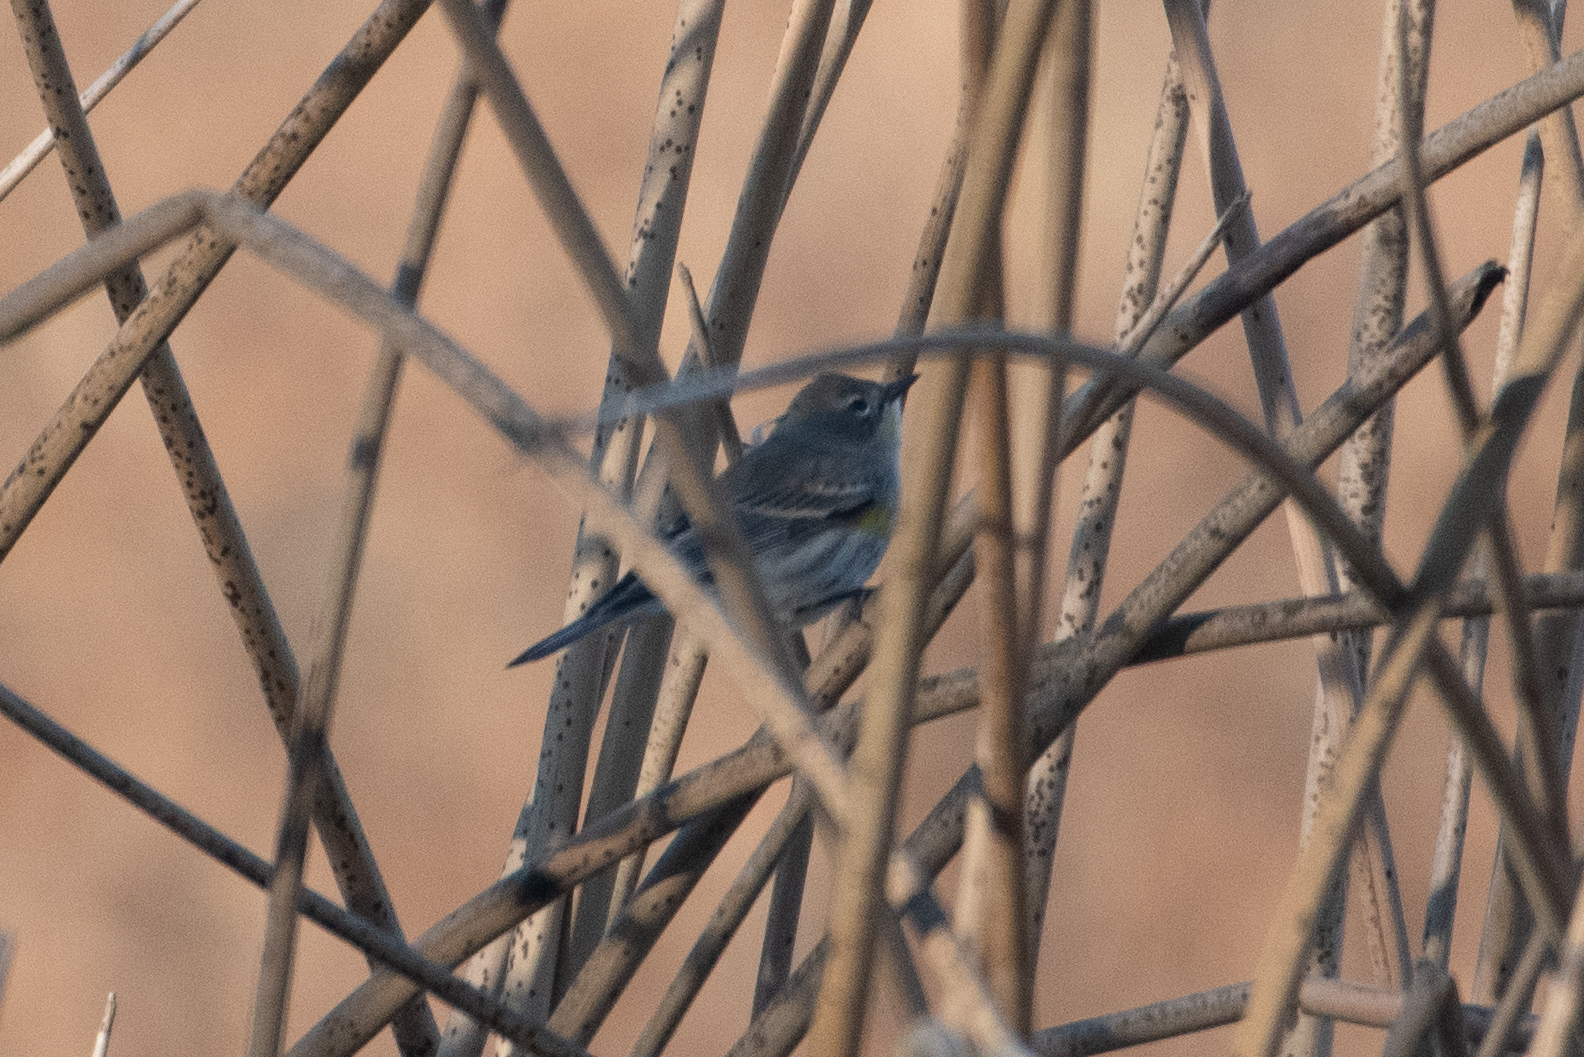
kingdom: Animalia
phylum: Chordata
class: Aves
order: Passeriformes
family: Parulidae
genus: Setophaga
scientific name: Setophaga coronata
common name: Myrtle warbler
